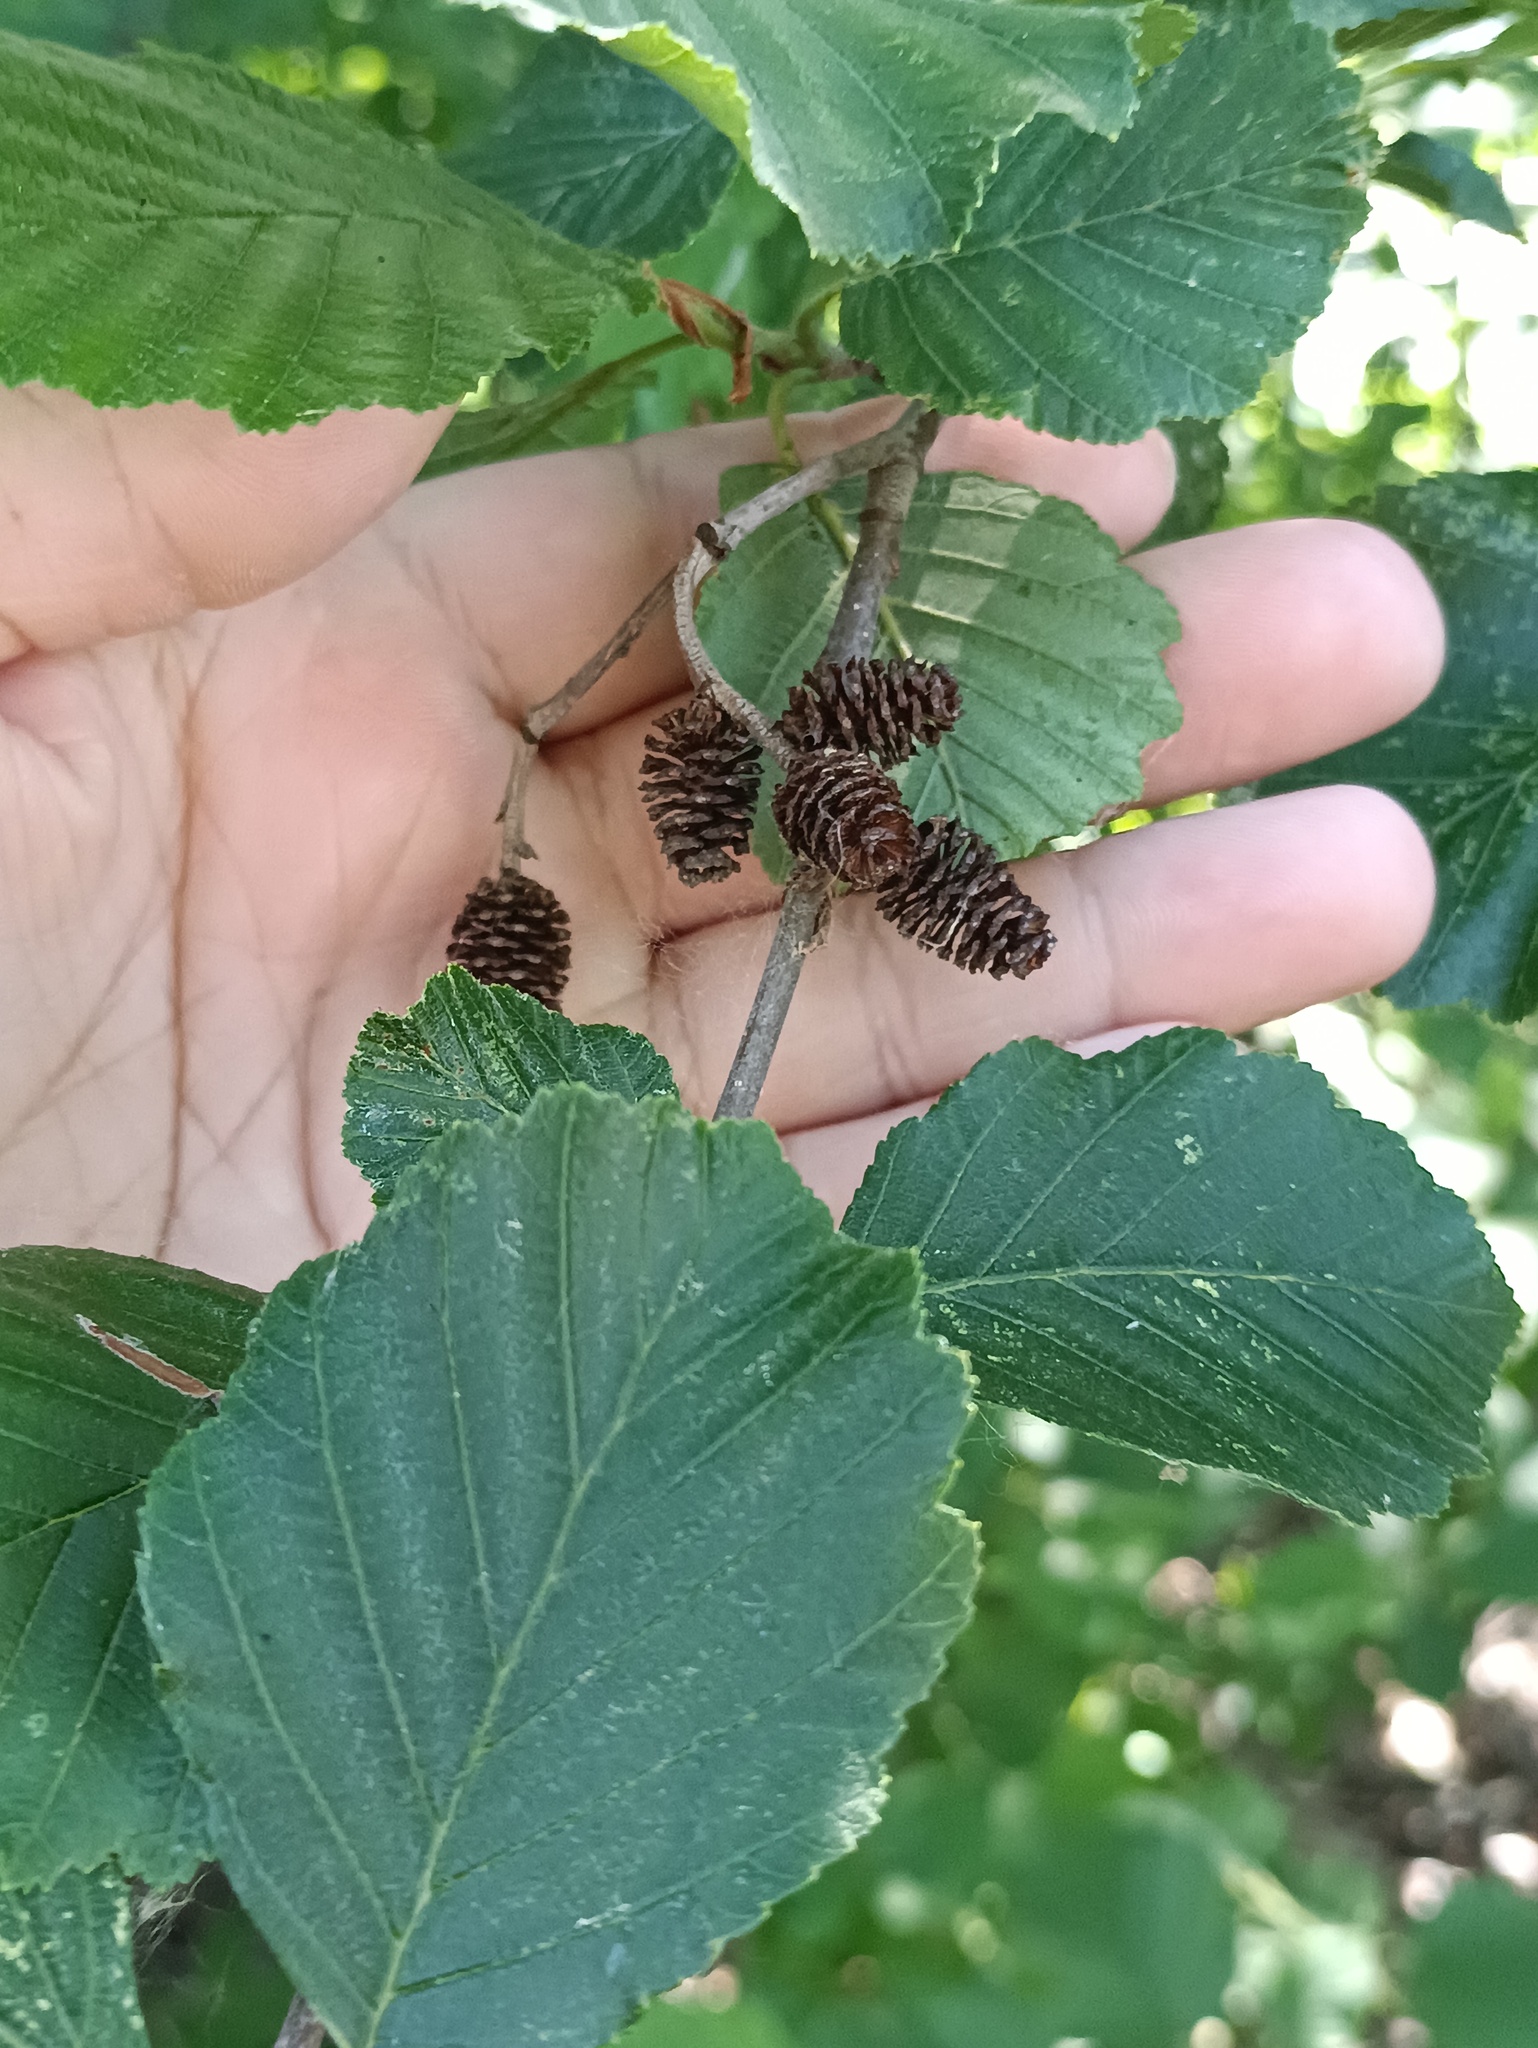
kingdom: Plantae
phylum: Tracheophyta
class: Magnoliopsida
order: Fagales
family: Betulaceae
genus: Alnus
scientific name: Alnus incana
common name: Grey alder
